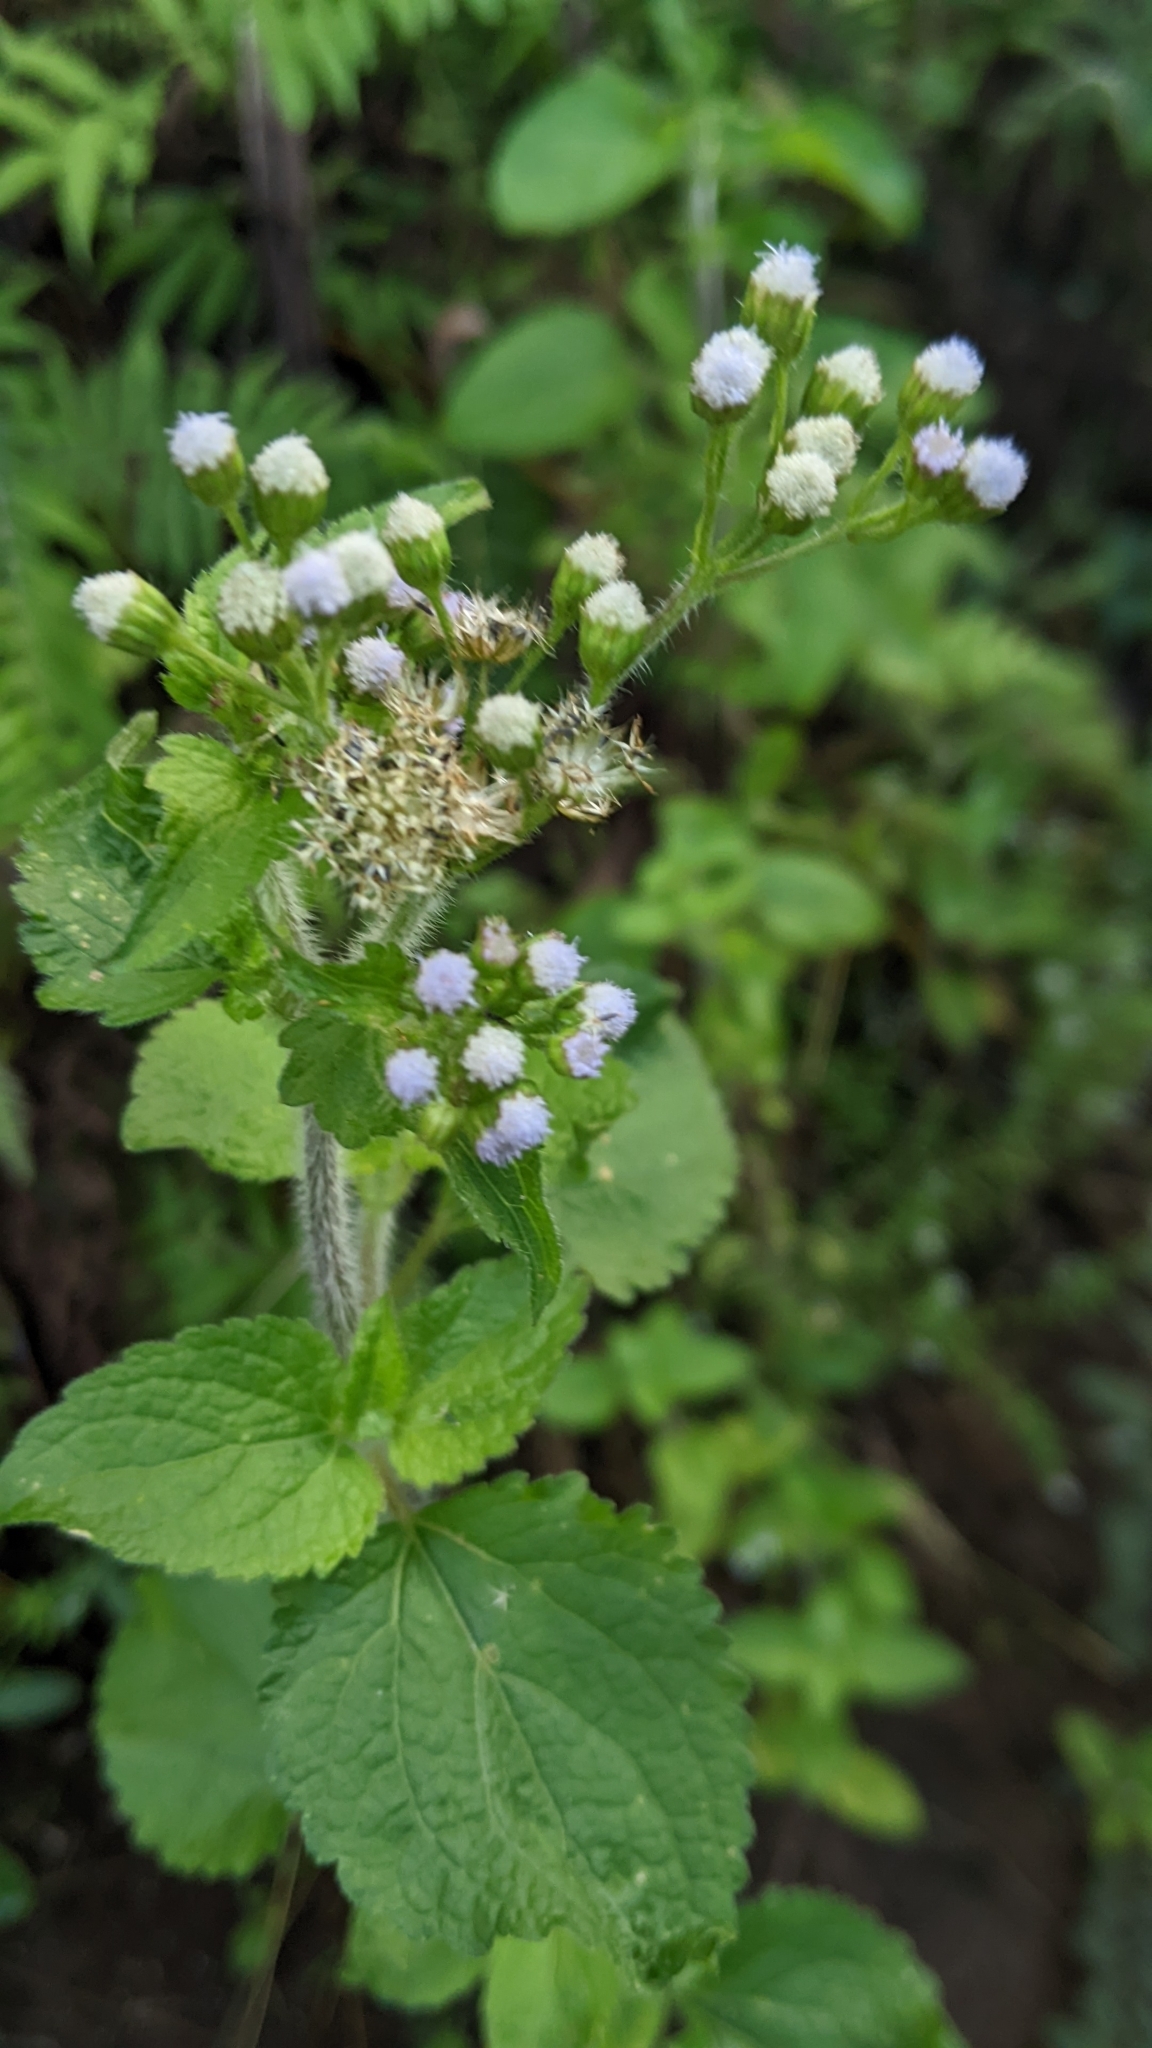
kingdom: Plantae
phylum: Tracheophyta
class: Magnoliopsida
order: Asterales
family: Asteraceae
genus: Ageratum
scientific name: Ageratum conyzoides
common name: Tropical whiteweed
